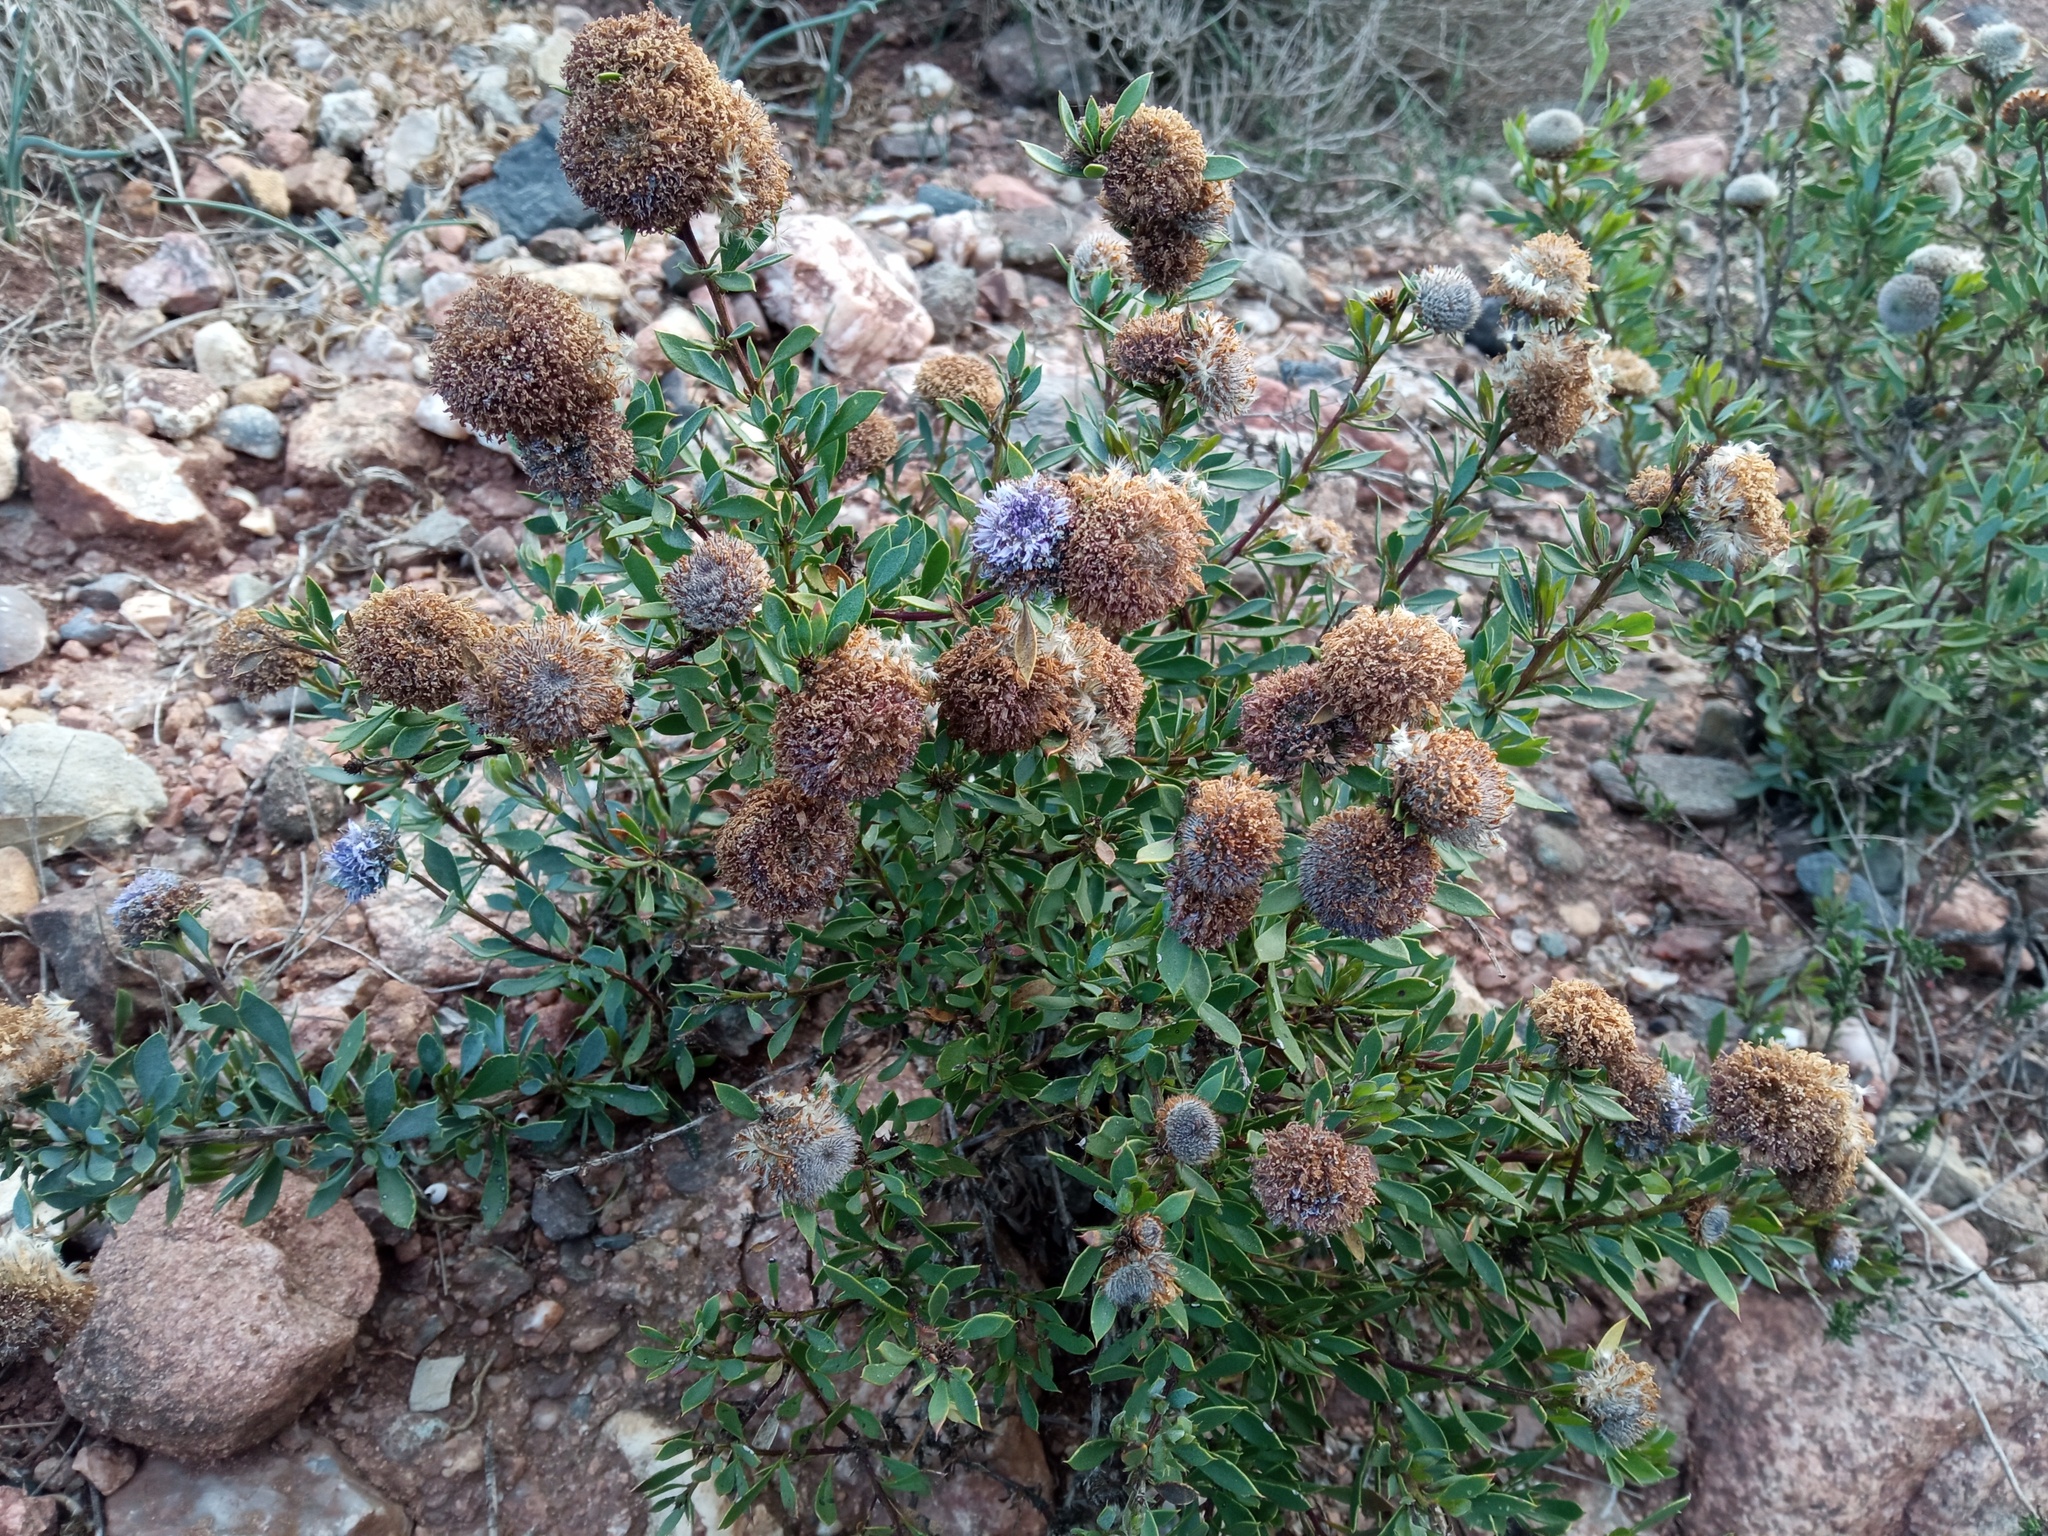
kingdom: Plantae
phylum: Tracheophyta
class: Magnoliopsida
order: Lamiales
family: Plantaginaceae
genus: Globularia
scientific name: Globularia alypum
